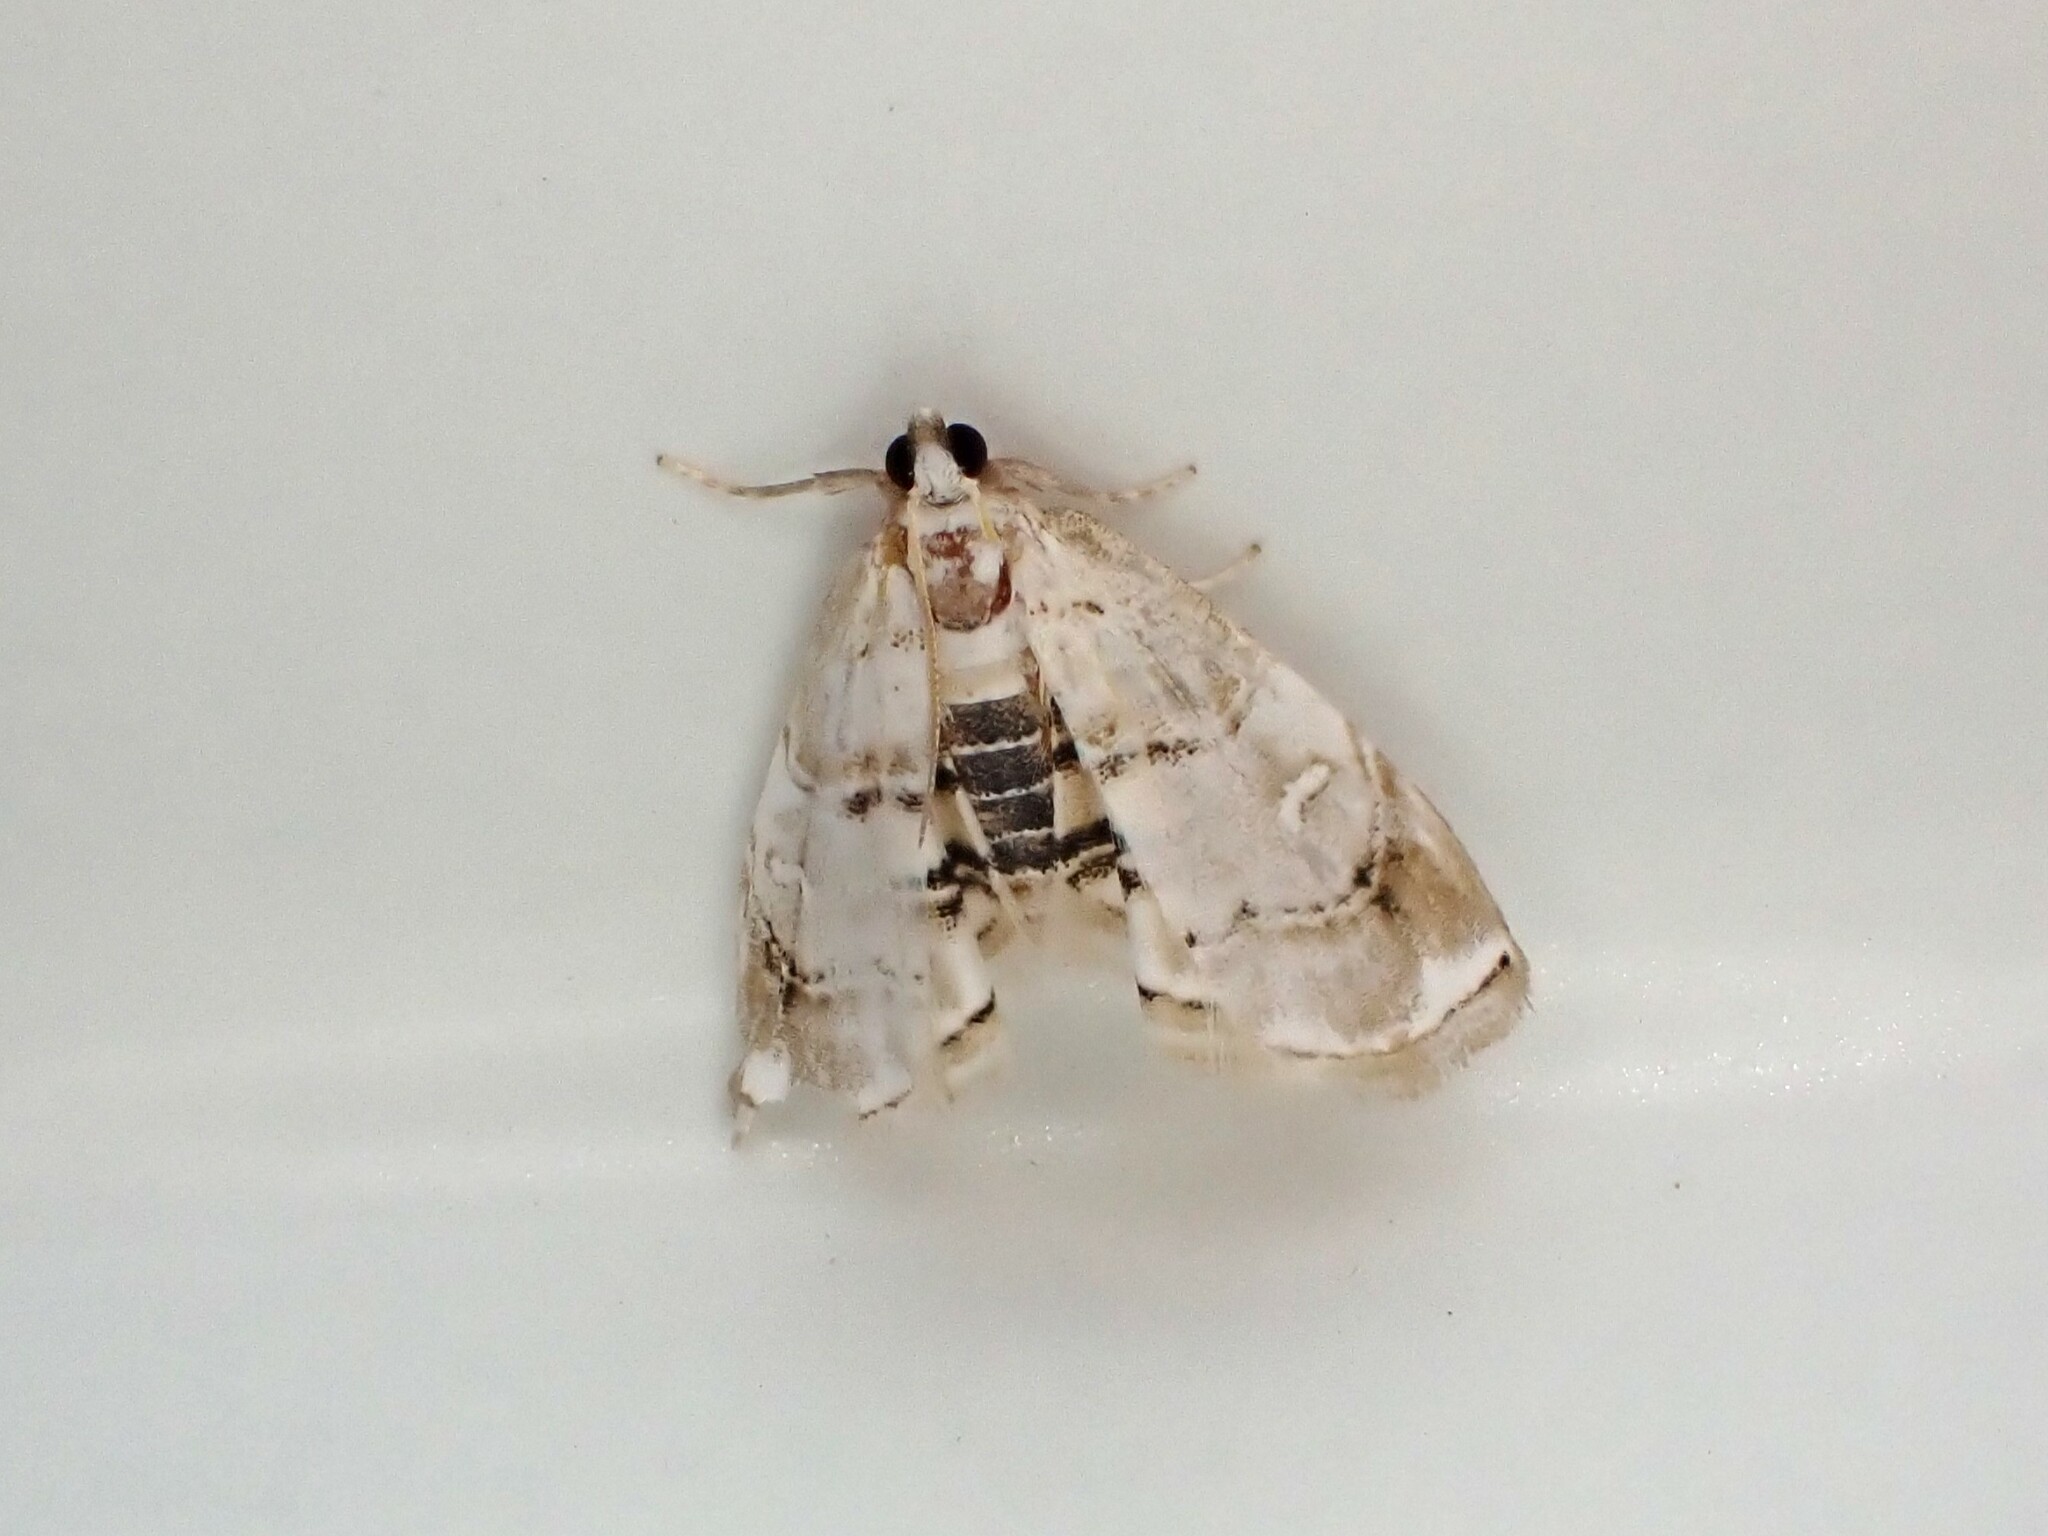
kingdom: Animalia
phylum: Arthropoda
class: Insecta
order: Lepidoptera
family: Crambidae
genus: Trichophysetis
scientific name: Trichophysetis
